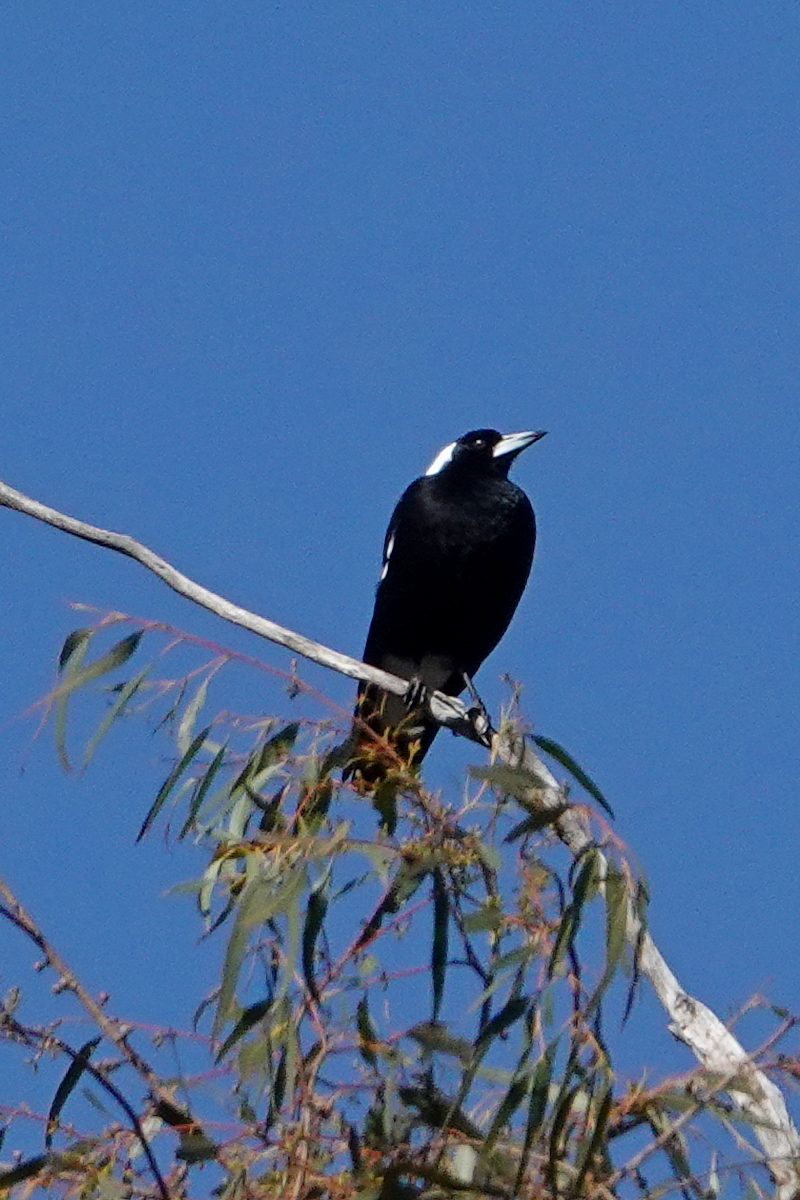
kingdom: Animalia
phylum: Chordata
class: Aves
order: Passeriformes
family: Cracticidae
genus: Gymnorhina
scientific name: Gymnorhina tibicen
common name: Australian magpie
